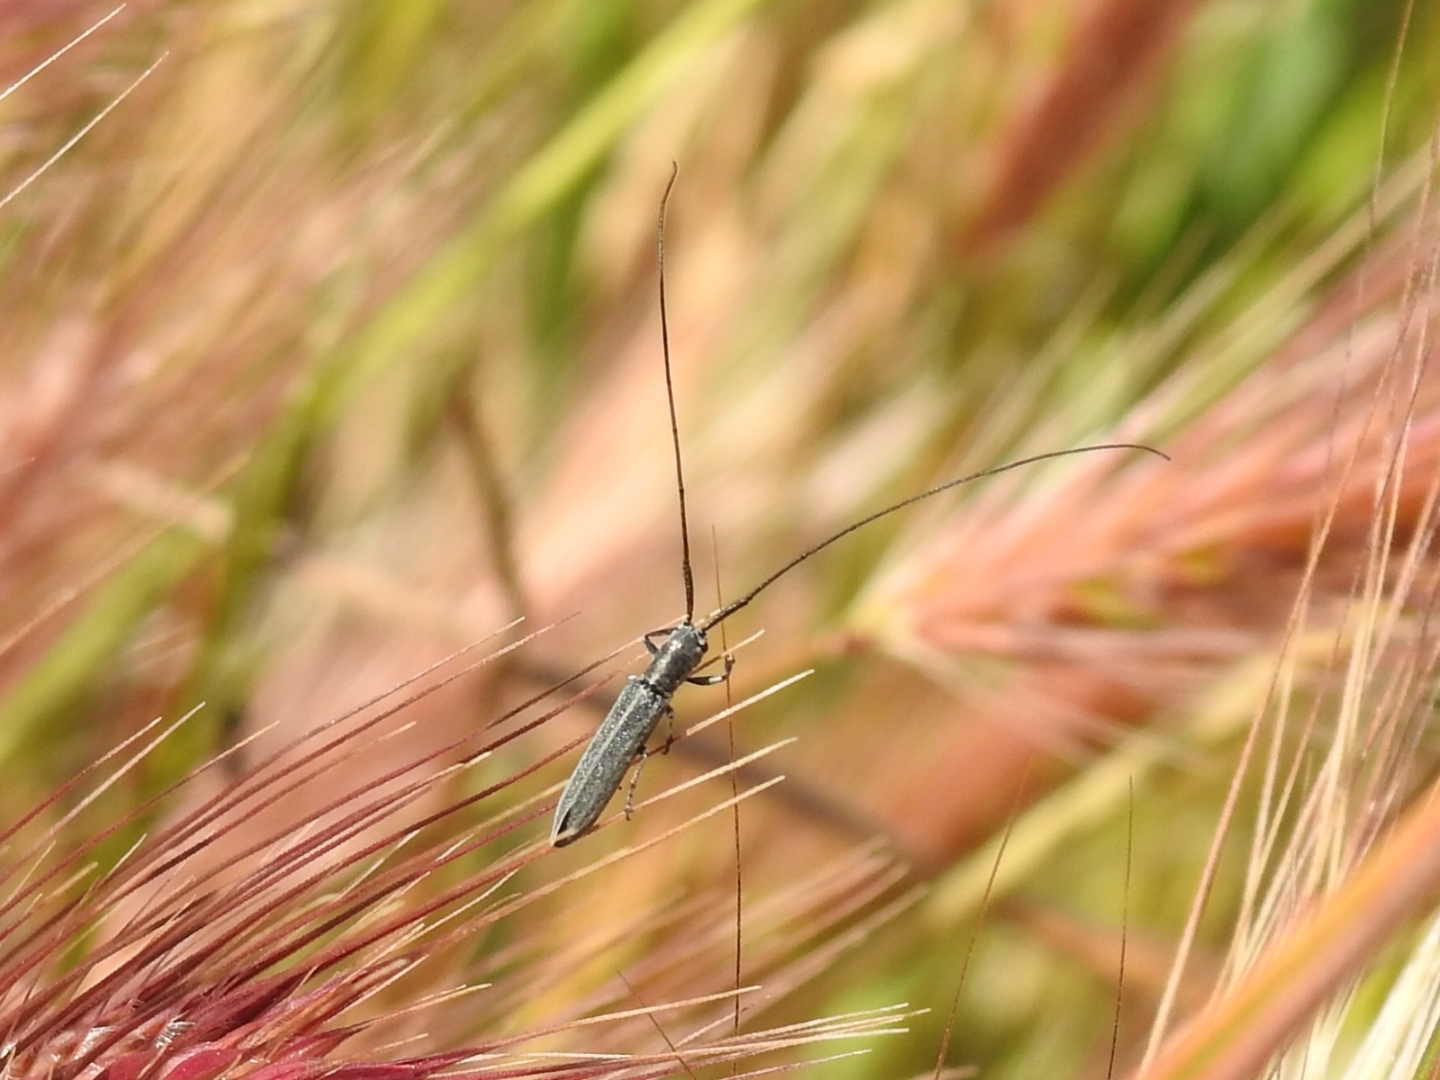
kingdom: Animalia
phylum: Arthropoda
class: Insecta
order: Coleoptera
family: Cerambycidae
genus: Calamobius
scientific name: Calamobius filum
